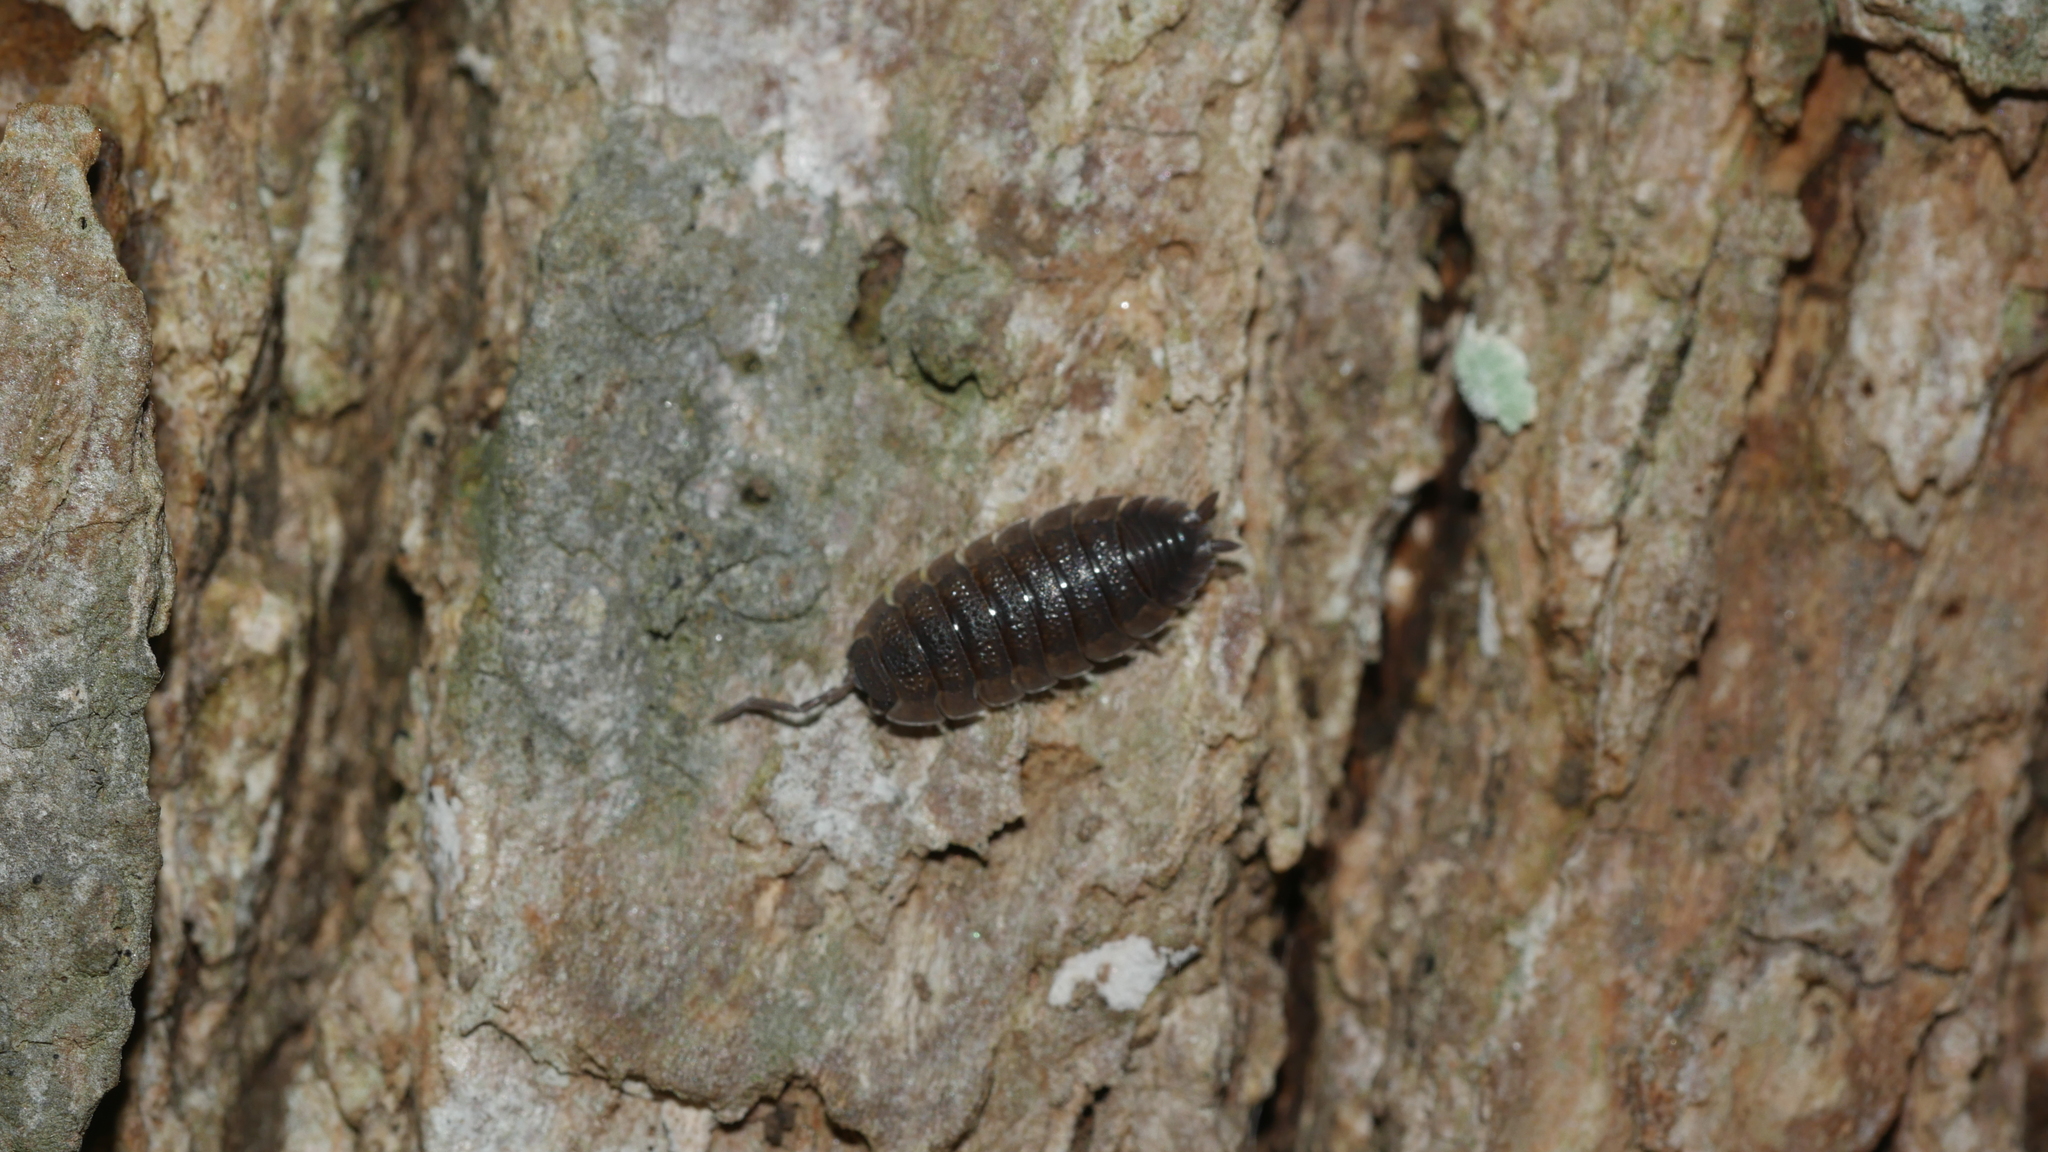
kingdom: Animalia
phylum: Arthropoda
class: Malacostraca
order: Isopoda
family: Porcellionidae
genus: Porcellio
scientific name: Porcellio scaber
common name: Common rough woodlouse
